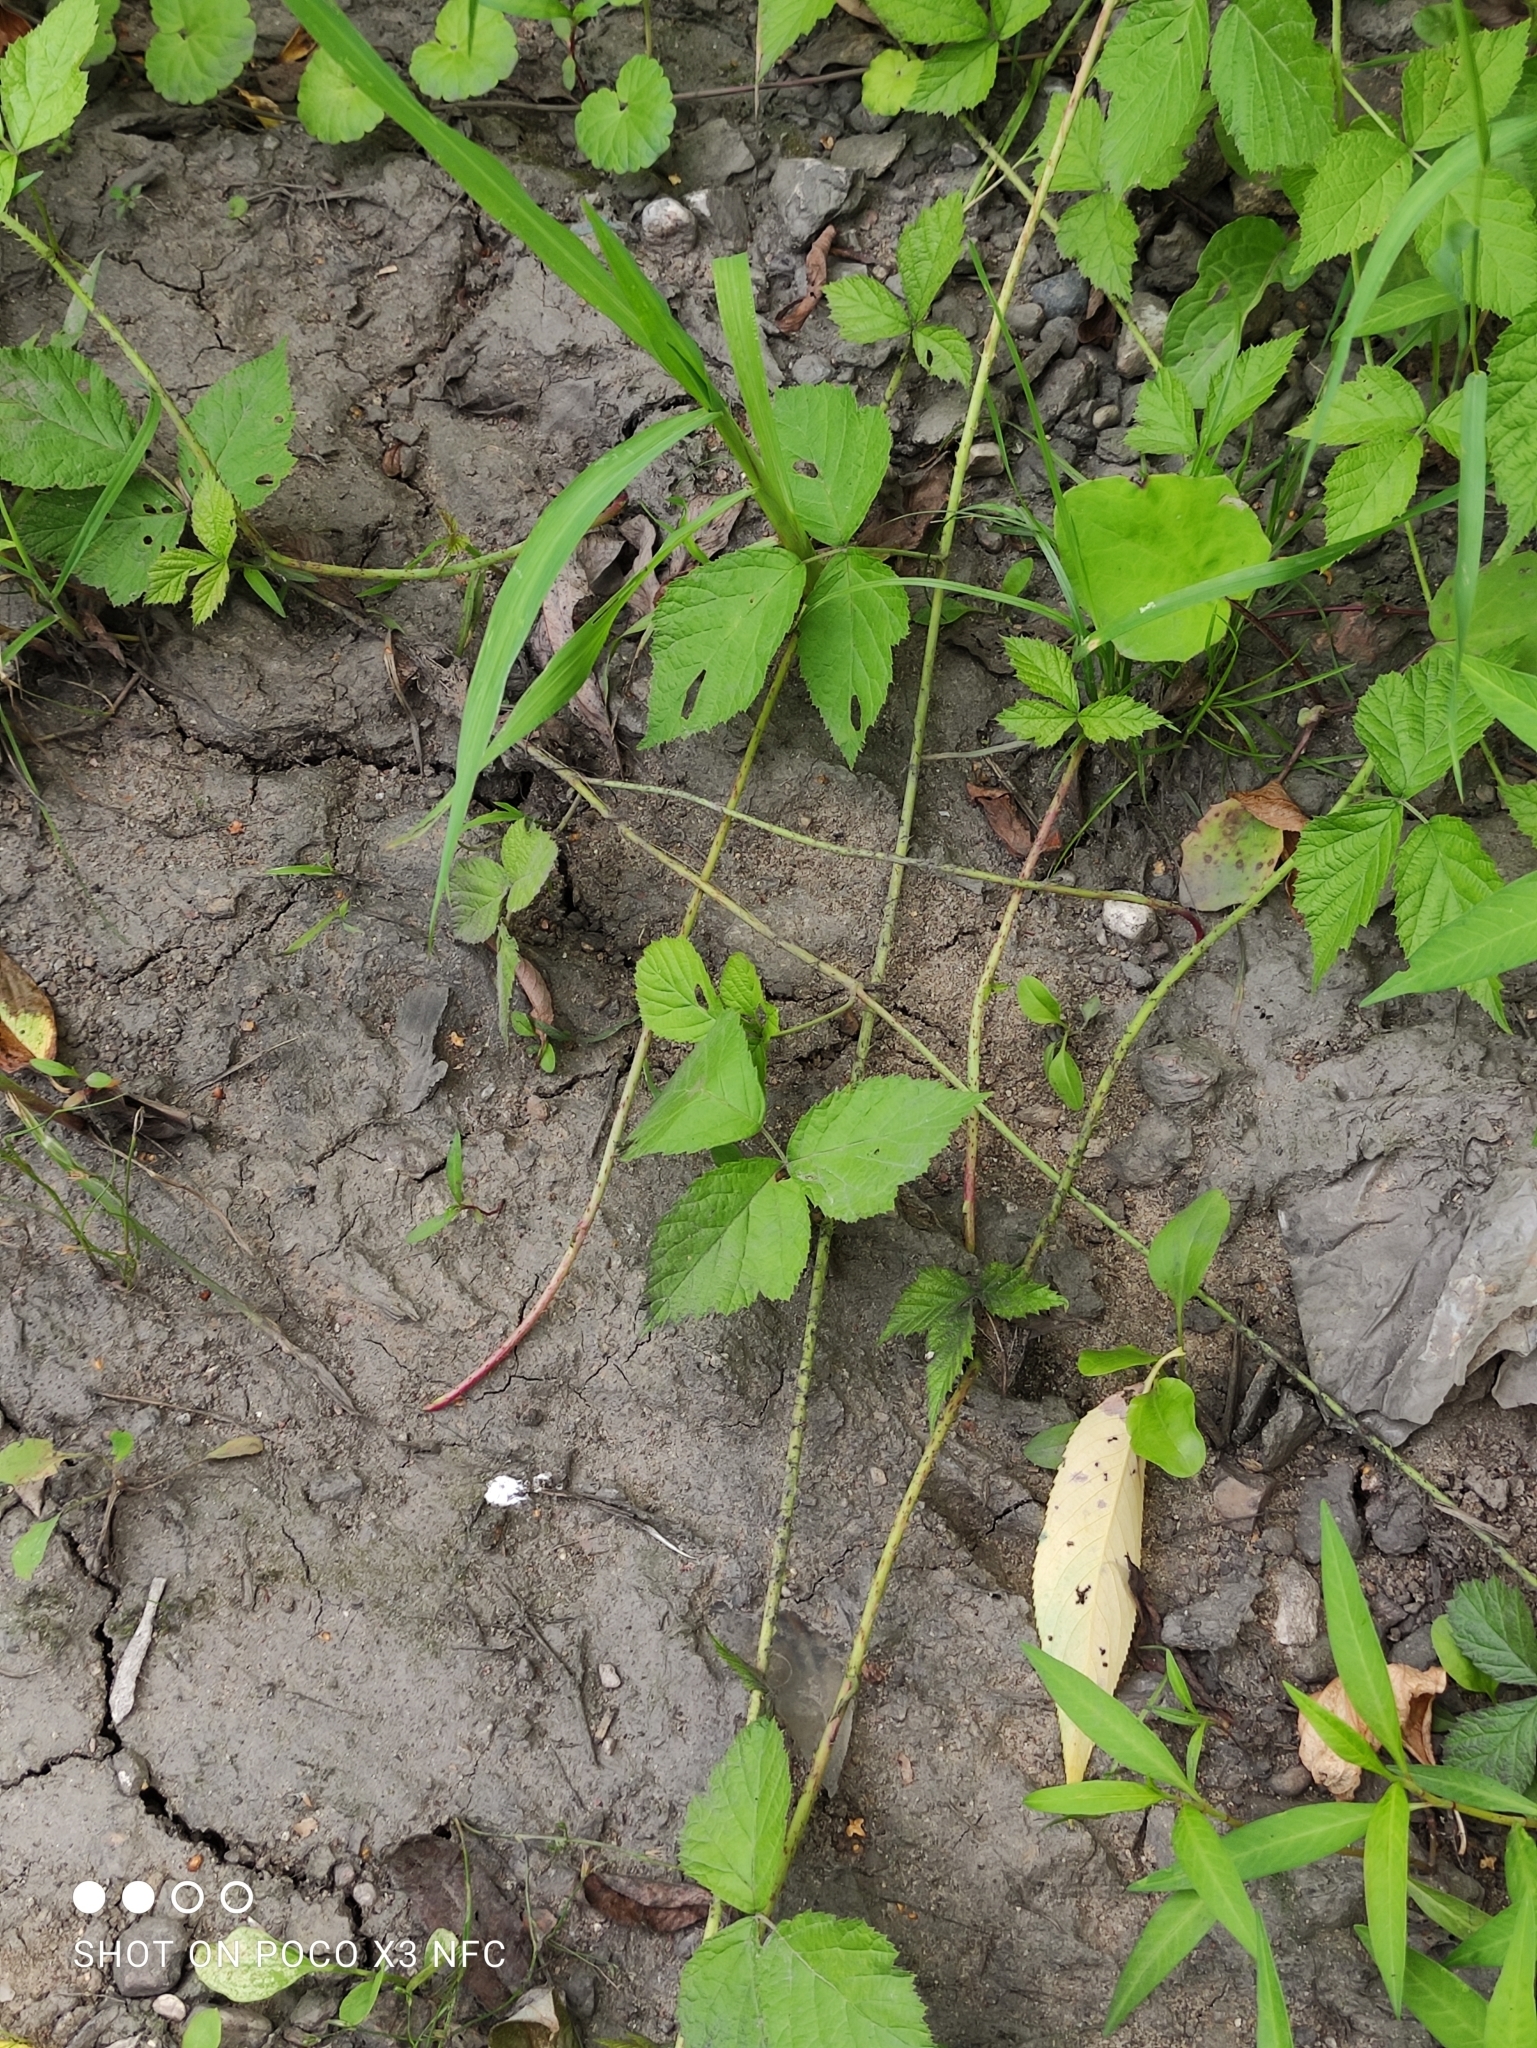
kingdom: Plantae
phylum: Tracheophyta
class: Magnoliopsida
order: Rosales
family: Rosaceae
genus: Rubus
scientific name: Rubus caesius
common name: Dewberry
